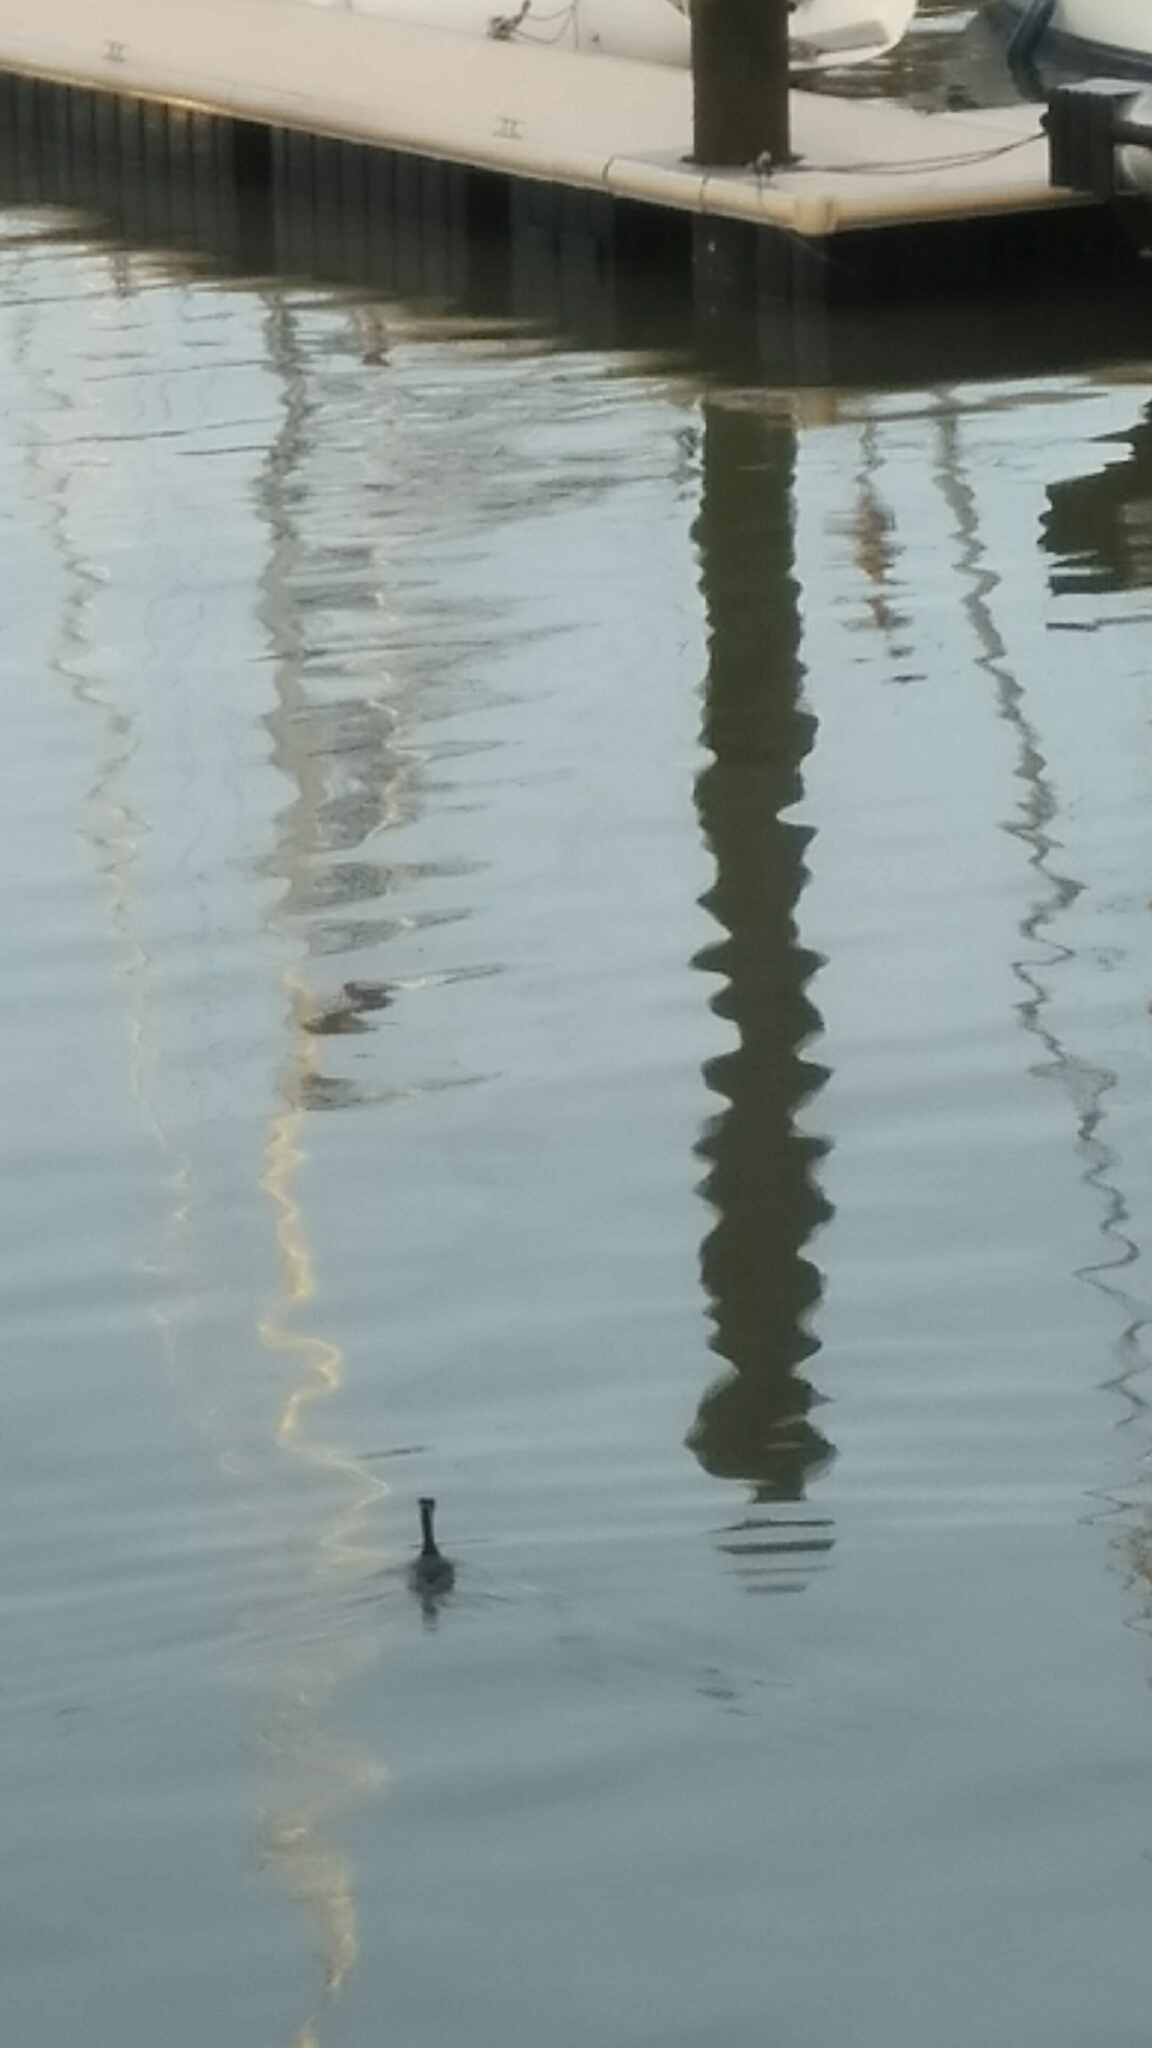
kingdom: Animalia
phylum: Chordata
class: Aves
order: Podicipediformes
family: Podicipedidae
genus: Podiceps
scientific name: Podiceps cristatus
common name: Great crested grebe
